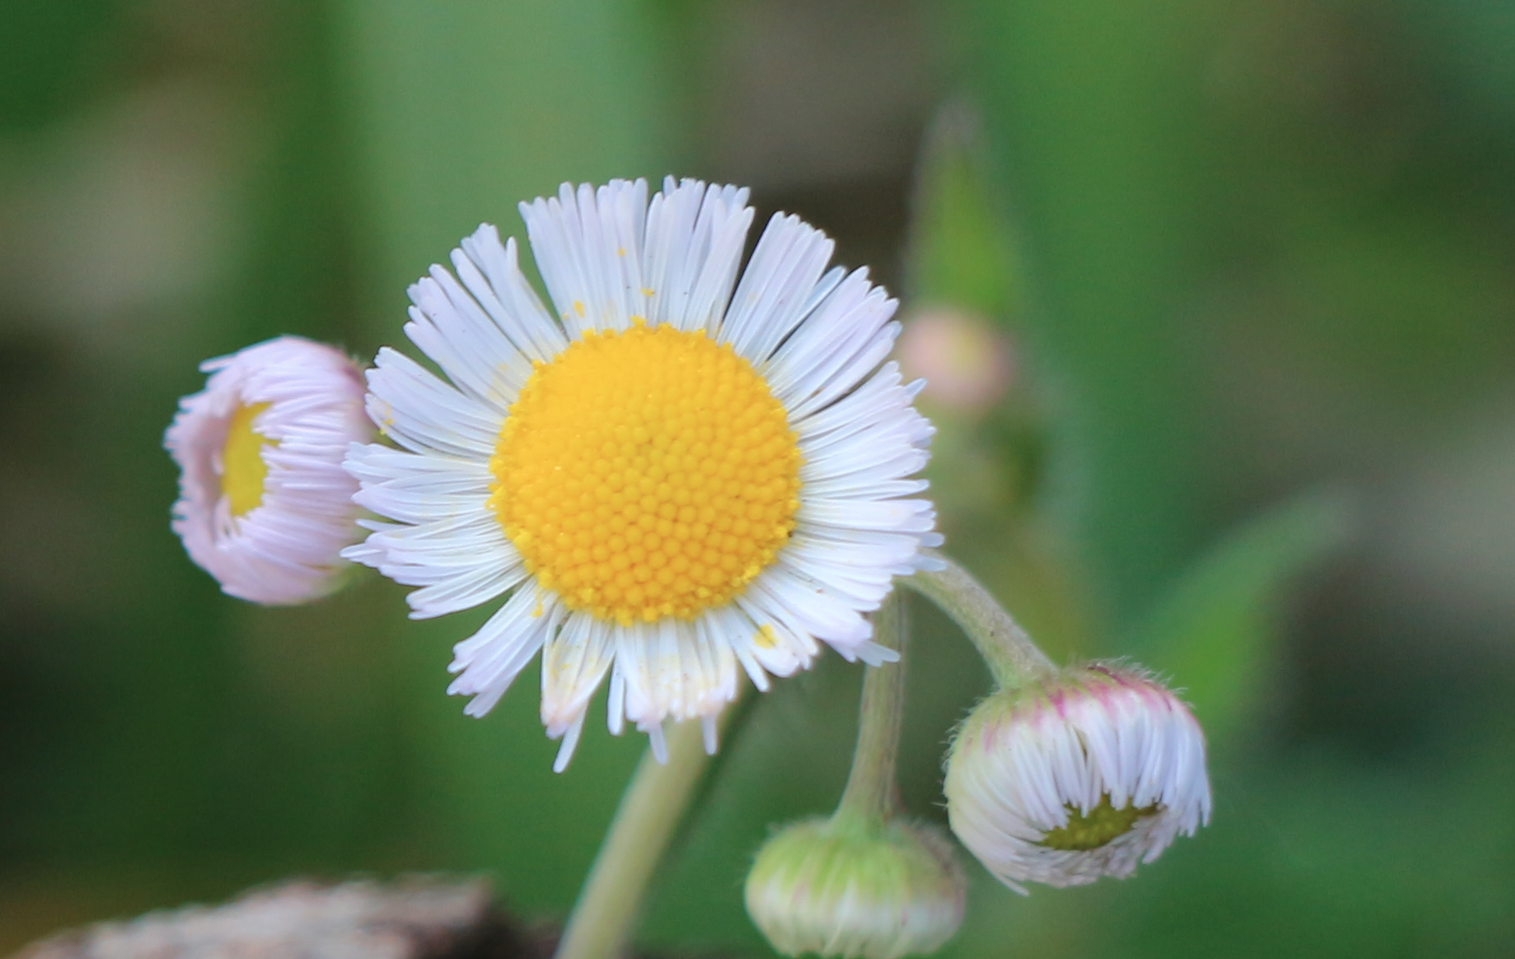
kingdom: Plantae
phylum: Tracheophyta
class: Magnoliopsida
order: Asterales
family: Asteraceae
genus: Erigeron
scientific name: Erigeron quercifolius
